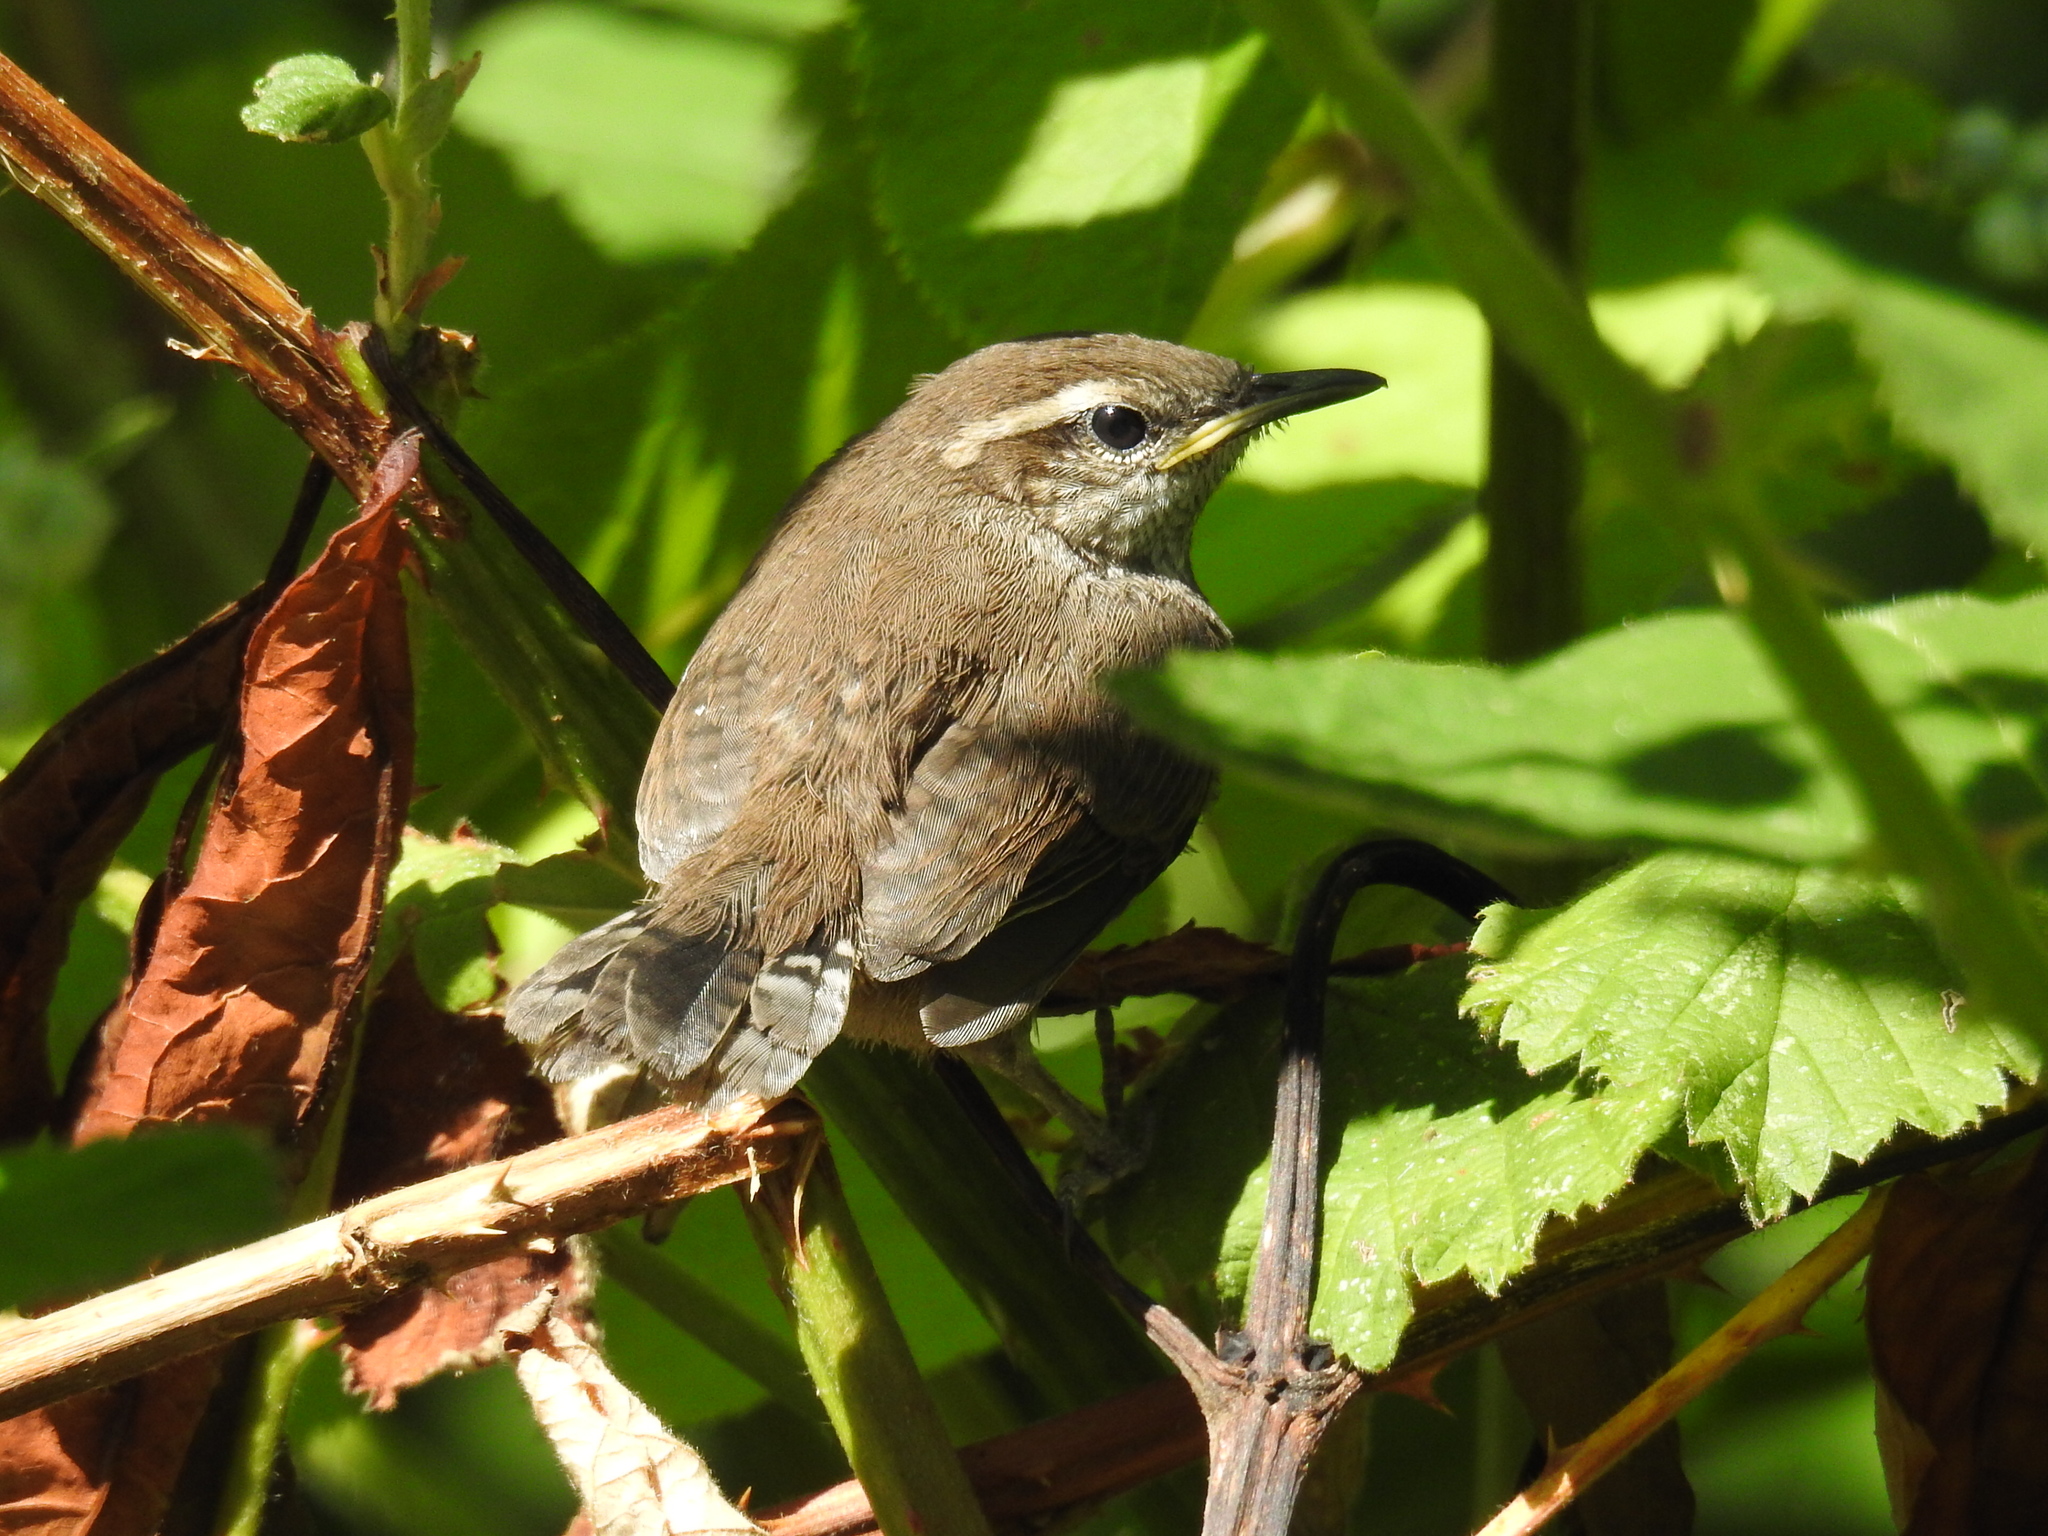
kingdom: Animalia
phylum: Chordata
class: Aves
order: Passeriformes
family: Troglodytidae
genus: Thryomanes
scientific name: Thryomanes bewickii
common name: Bewick's wren
